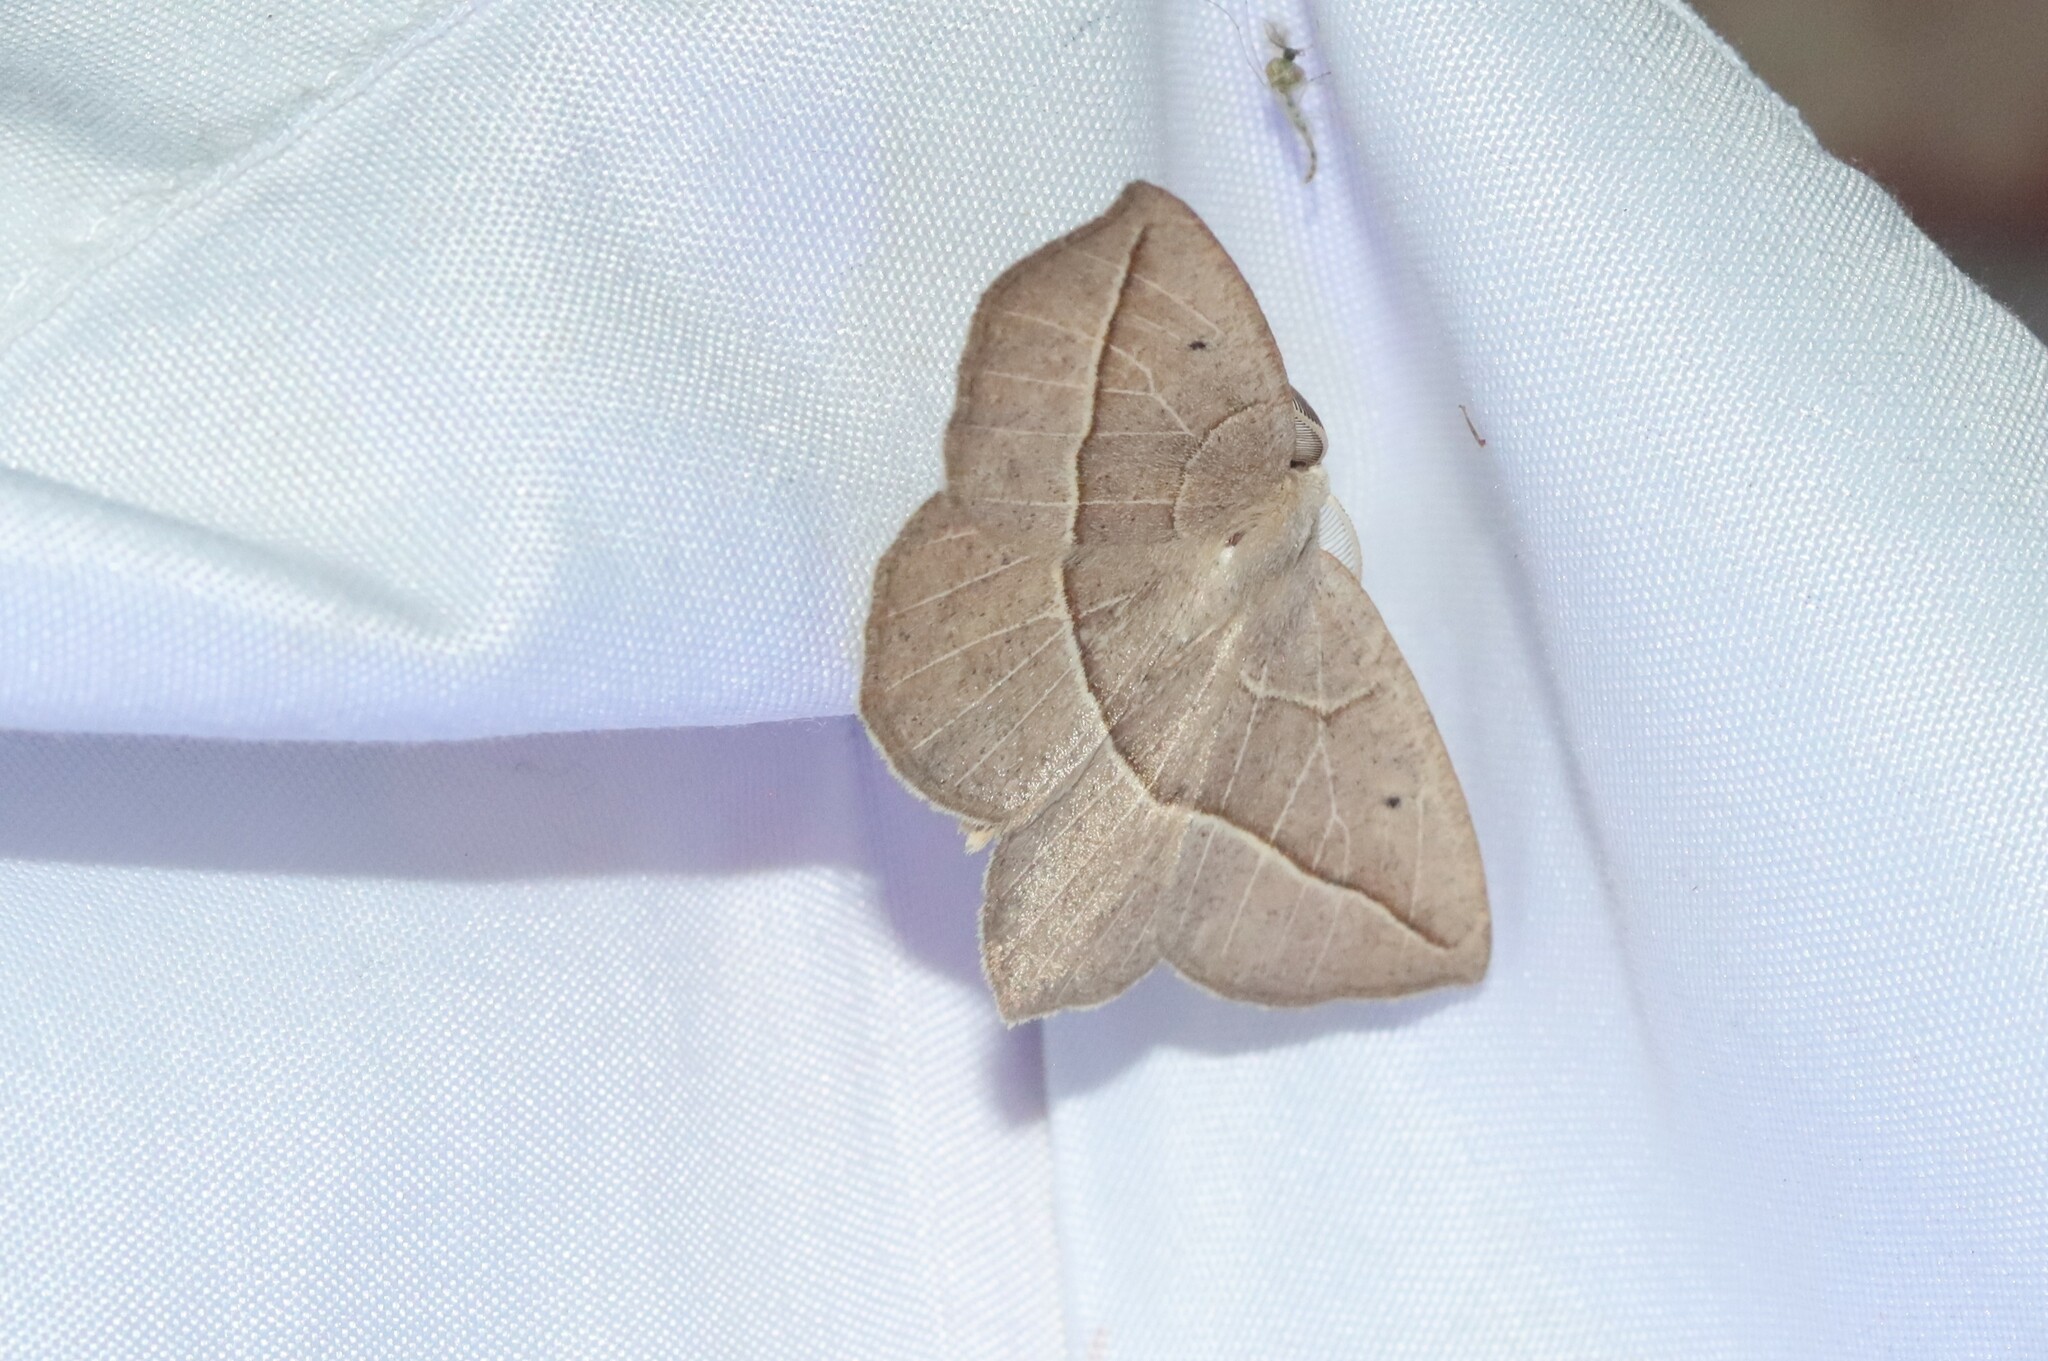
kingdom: Animalia
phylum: Arthropoda
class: Insecta
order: Lepidoptera
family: Geometridae
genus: Eusarca
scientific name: Eusarca confusaria
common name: Confused eusarca
